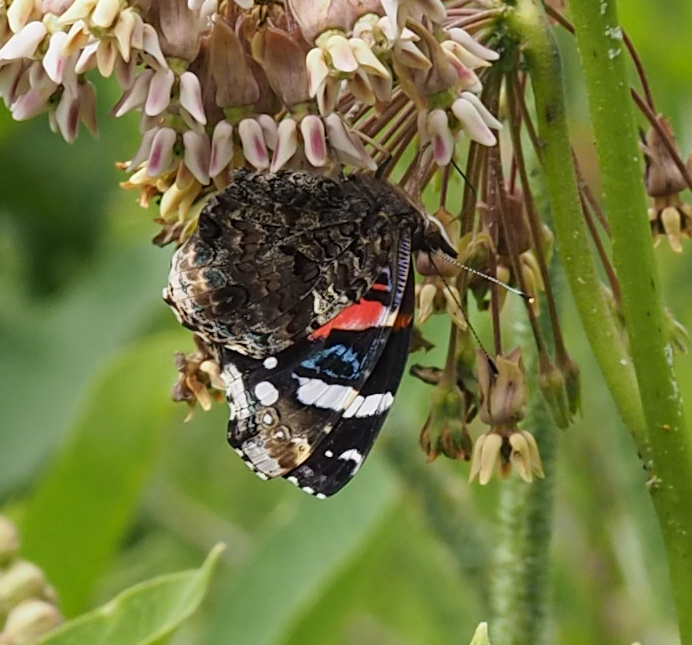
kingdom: Animalia
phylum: Arthropoda
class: Insecta
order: Lepidoptera
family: Nymphalidae
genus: Vanessa
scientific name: Vanessa atalanta
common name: Red admiral
